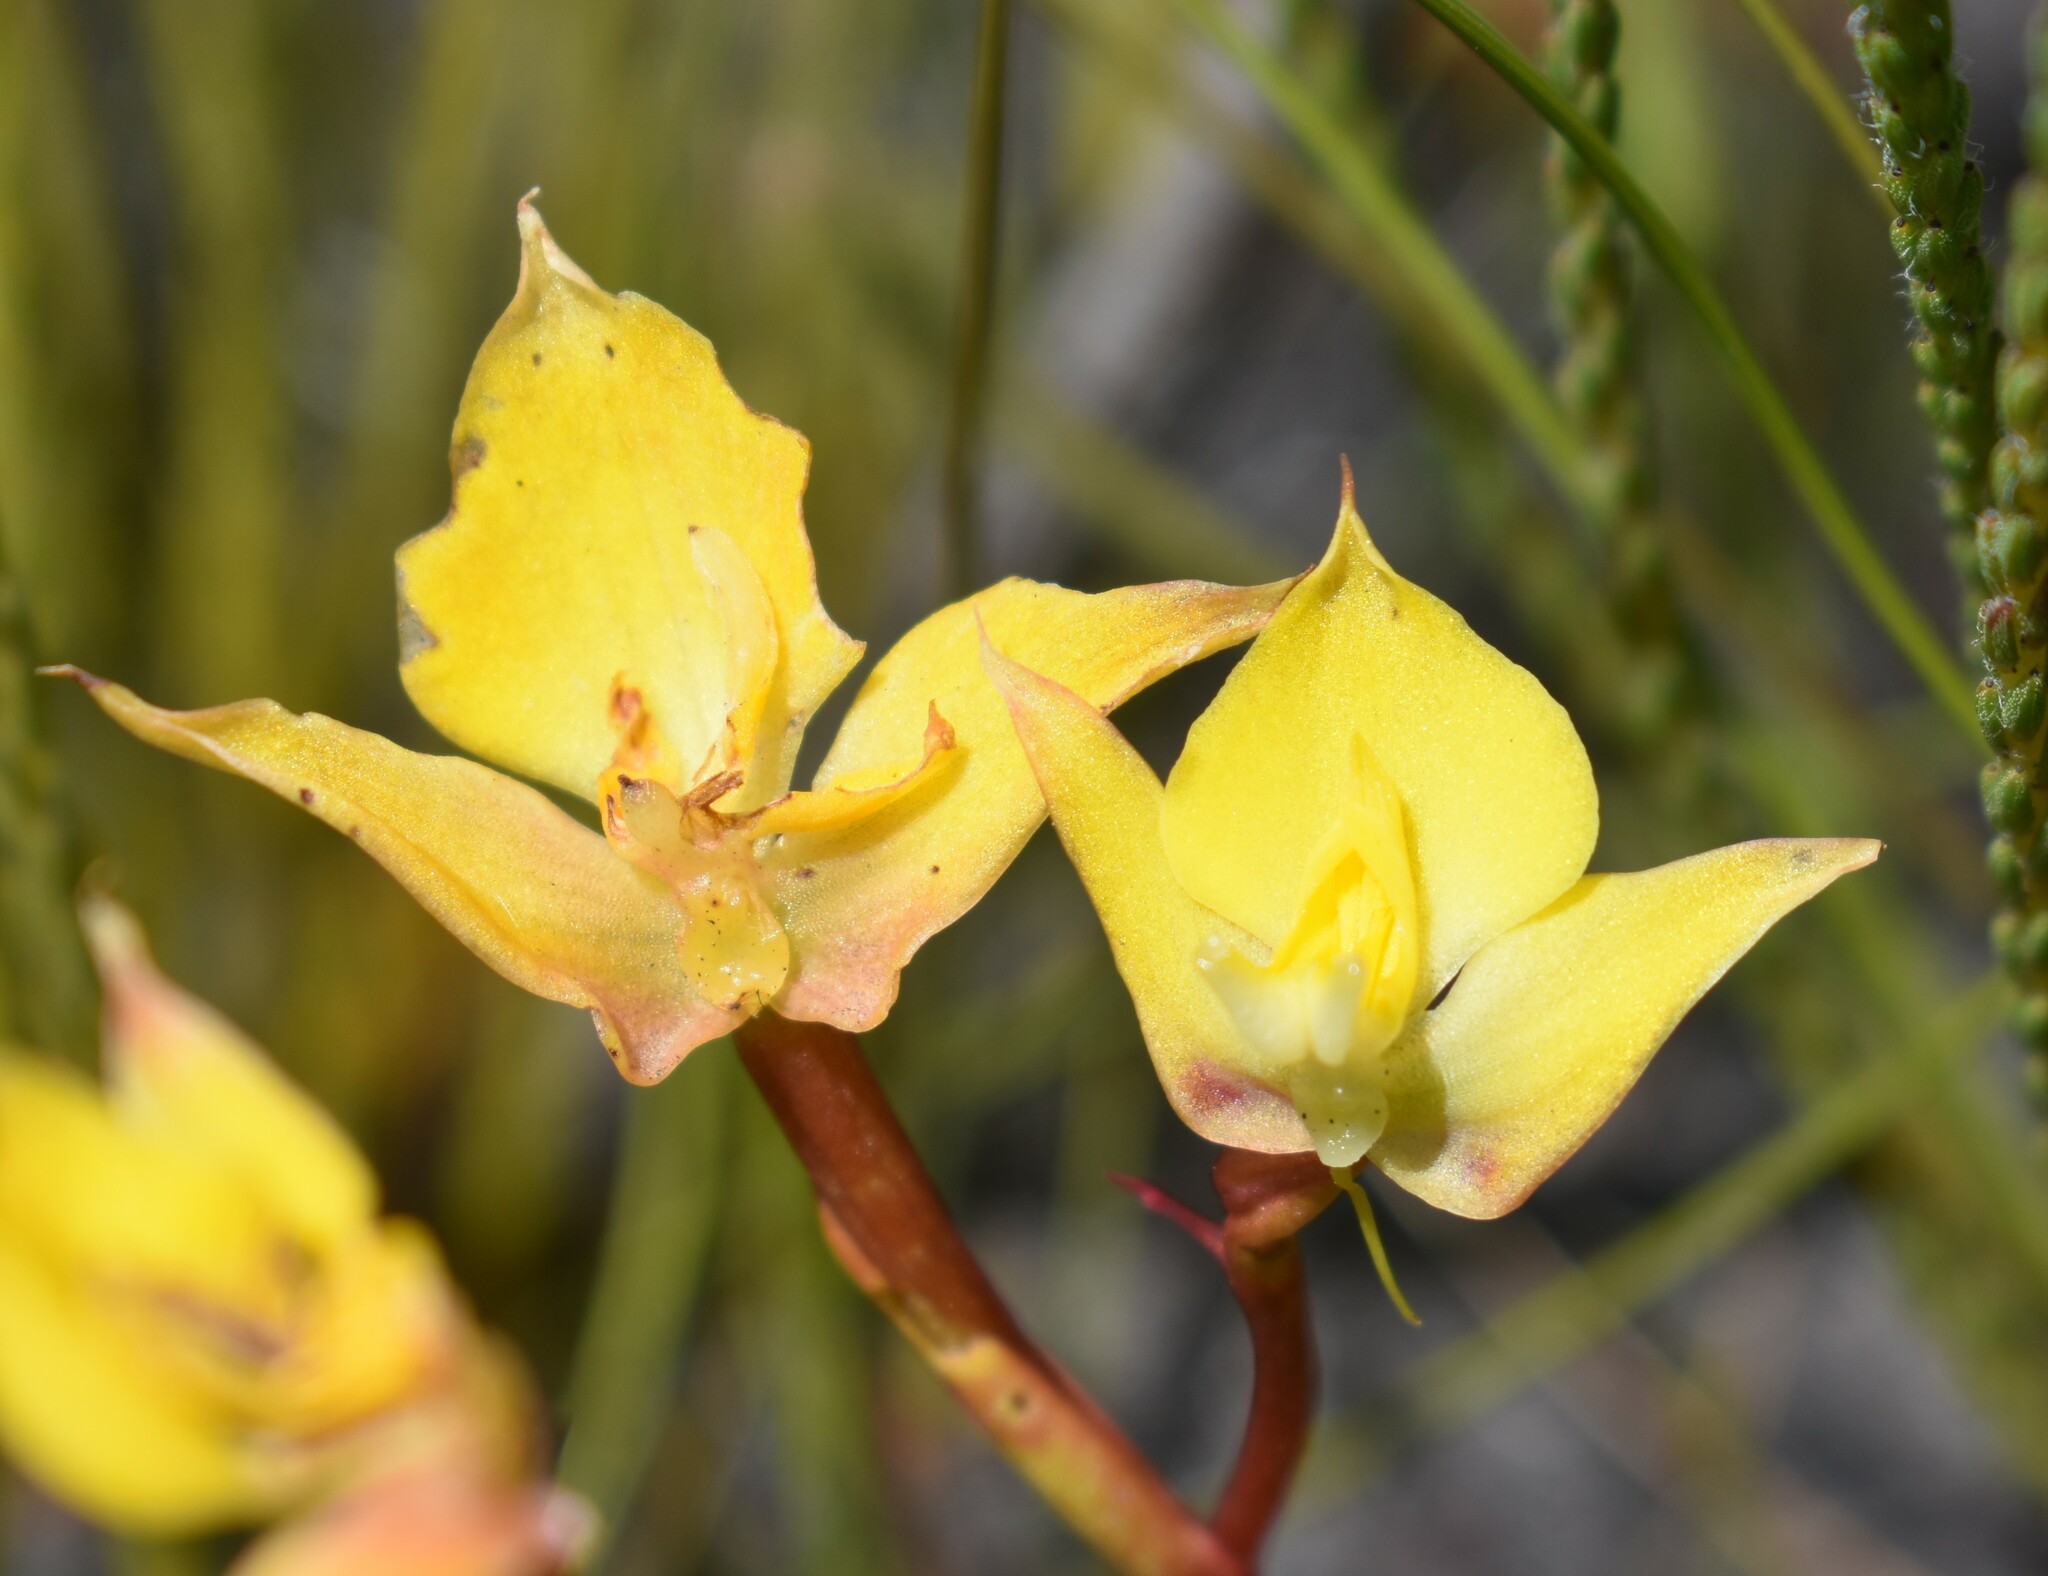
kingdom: Plantae
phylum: Tracheophyta
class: Liliopsida
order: Asparagales
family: Orchidaceae
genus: Disa
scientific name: Disa tenuifolia
